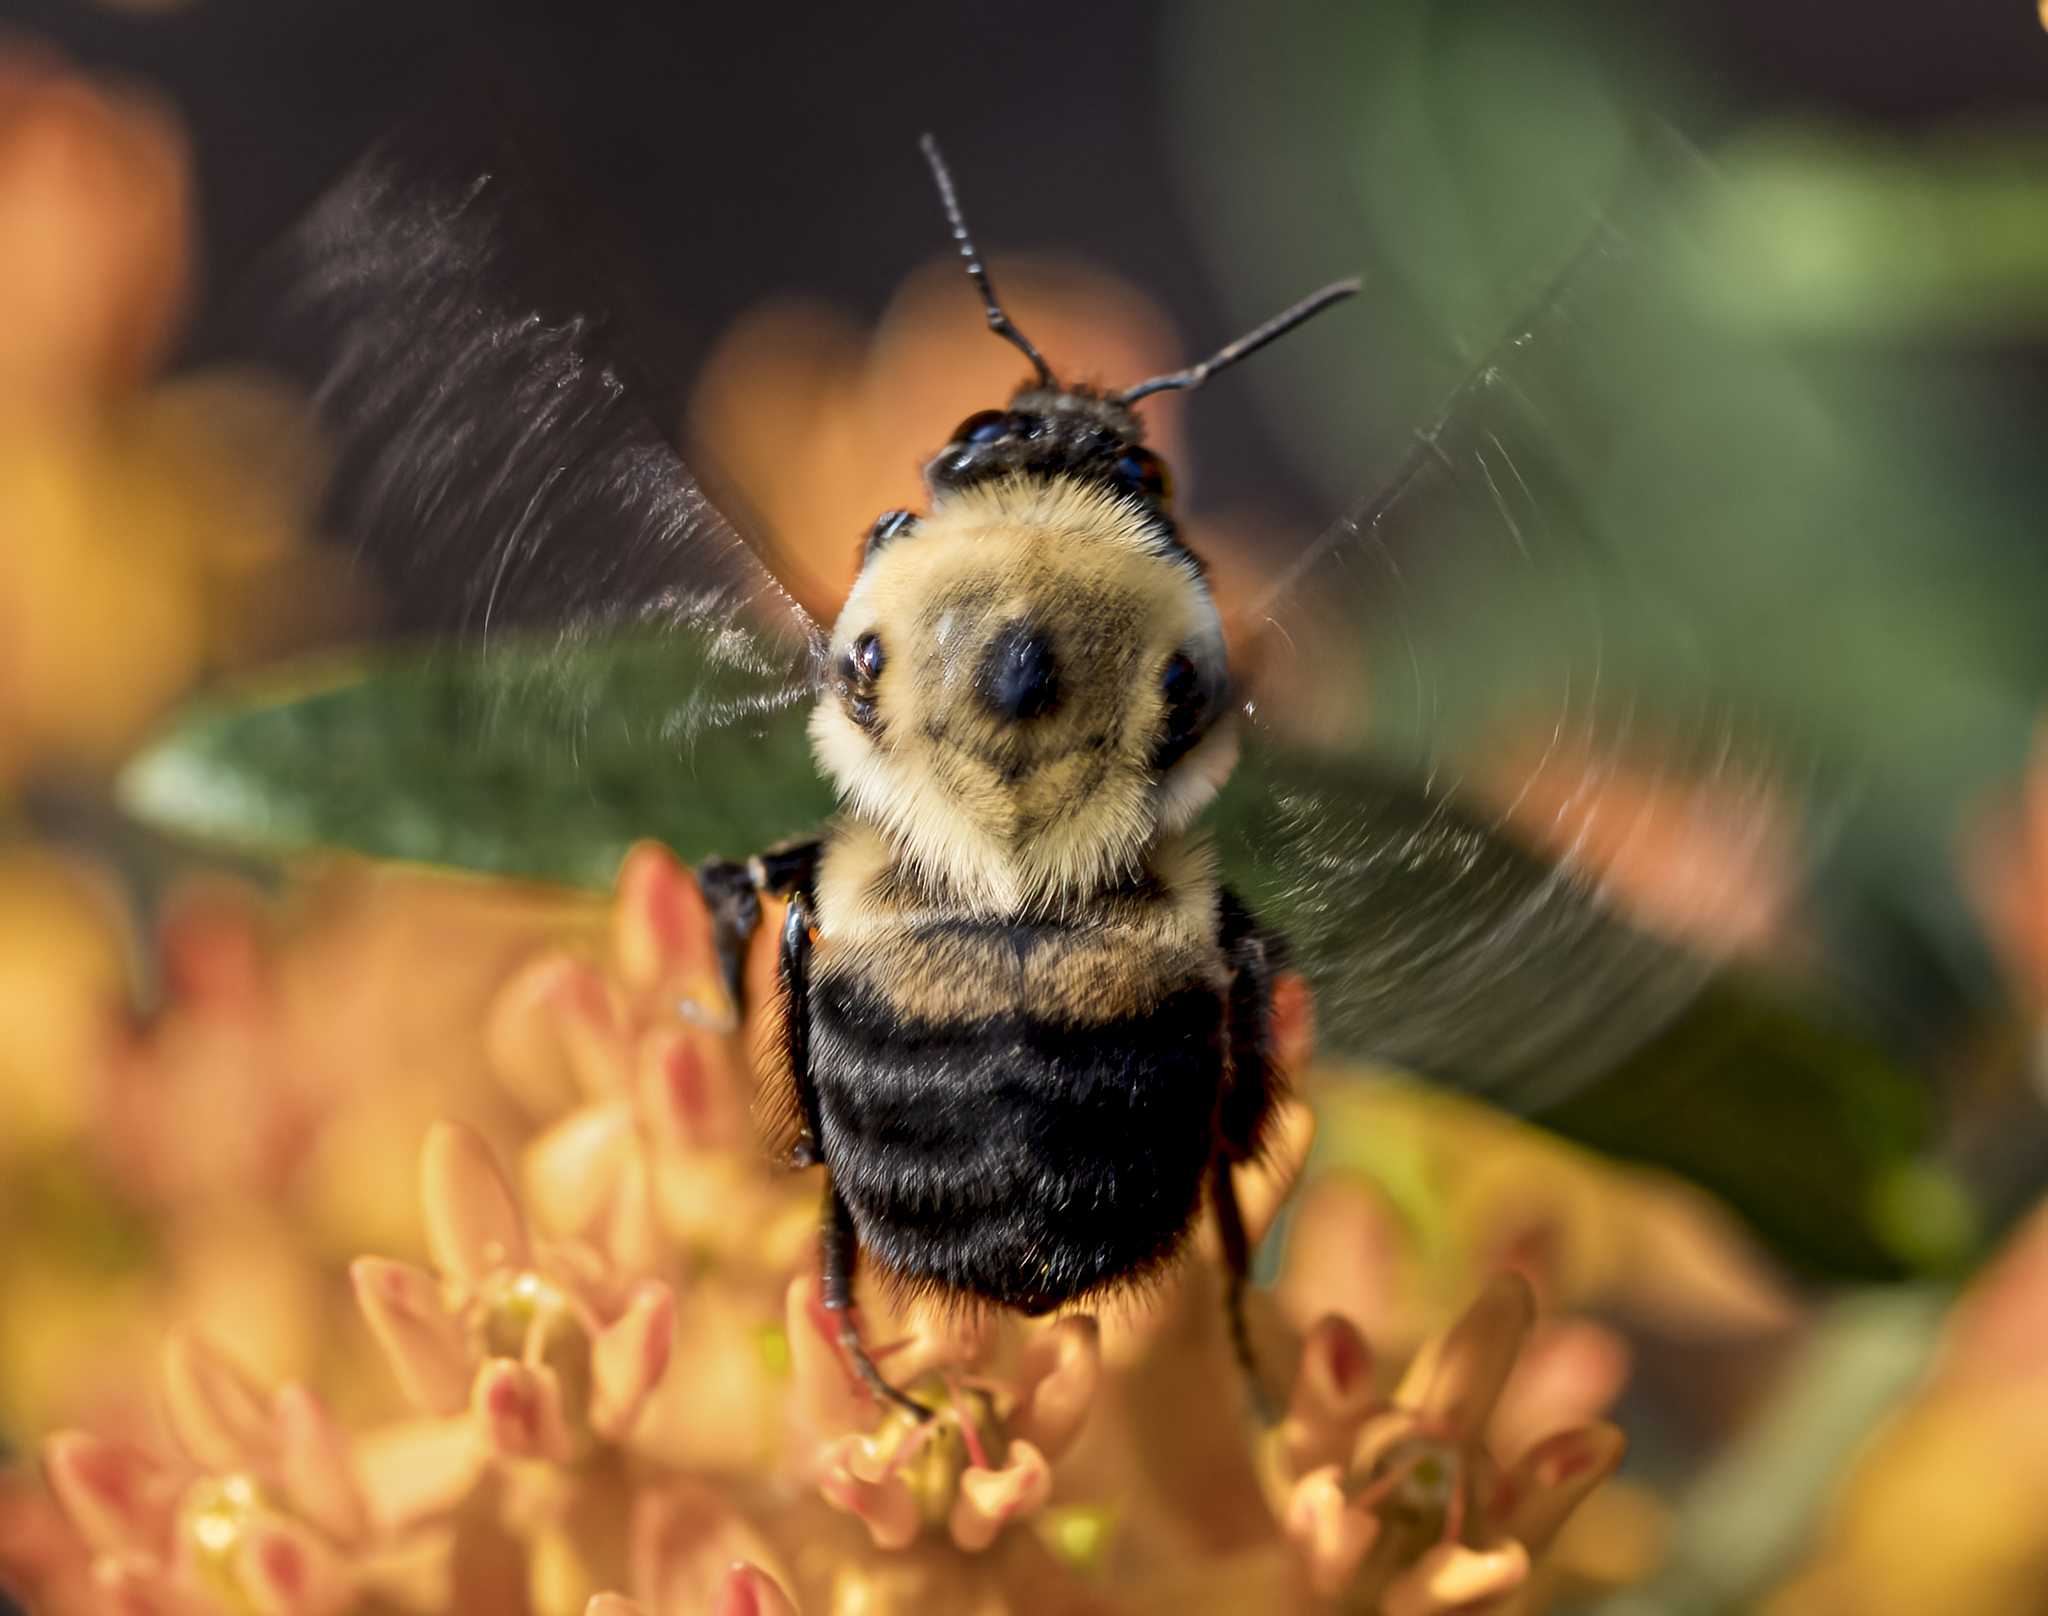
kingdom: Animalia
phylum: Arthropoda
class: Insecta
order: Hymenoptera
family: Apidae
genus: Bombus
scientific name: Bombus griseocollis
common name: Brown-belted bumble bee
